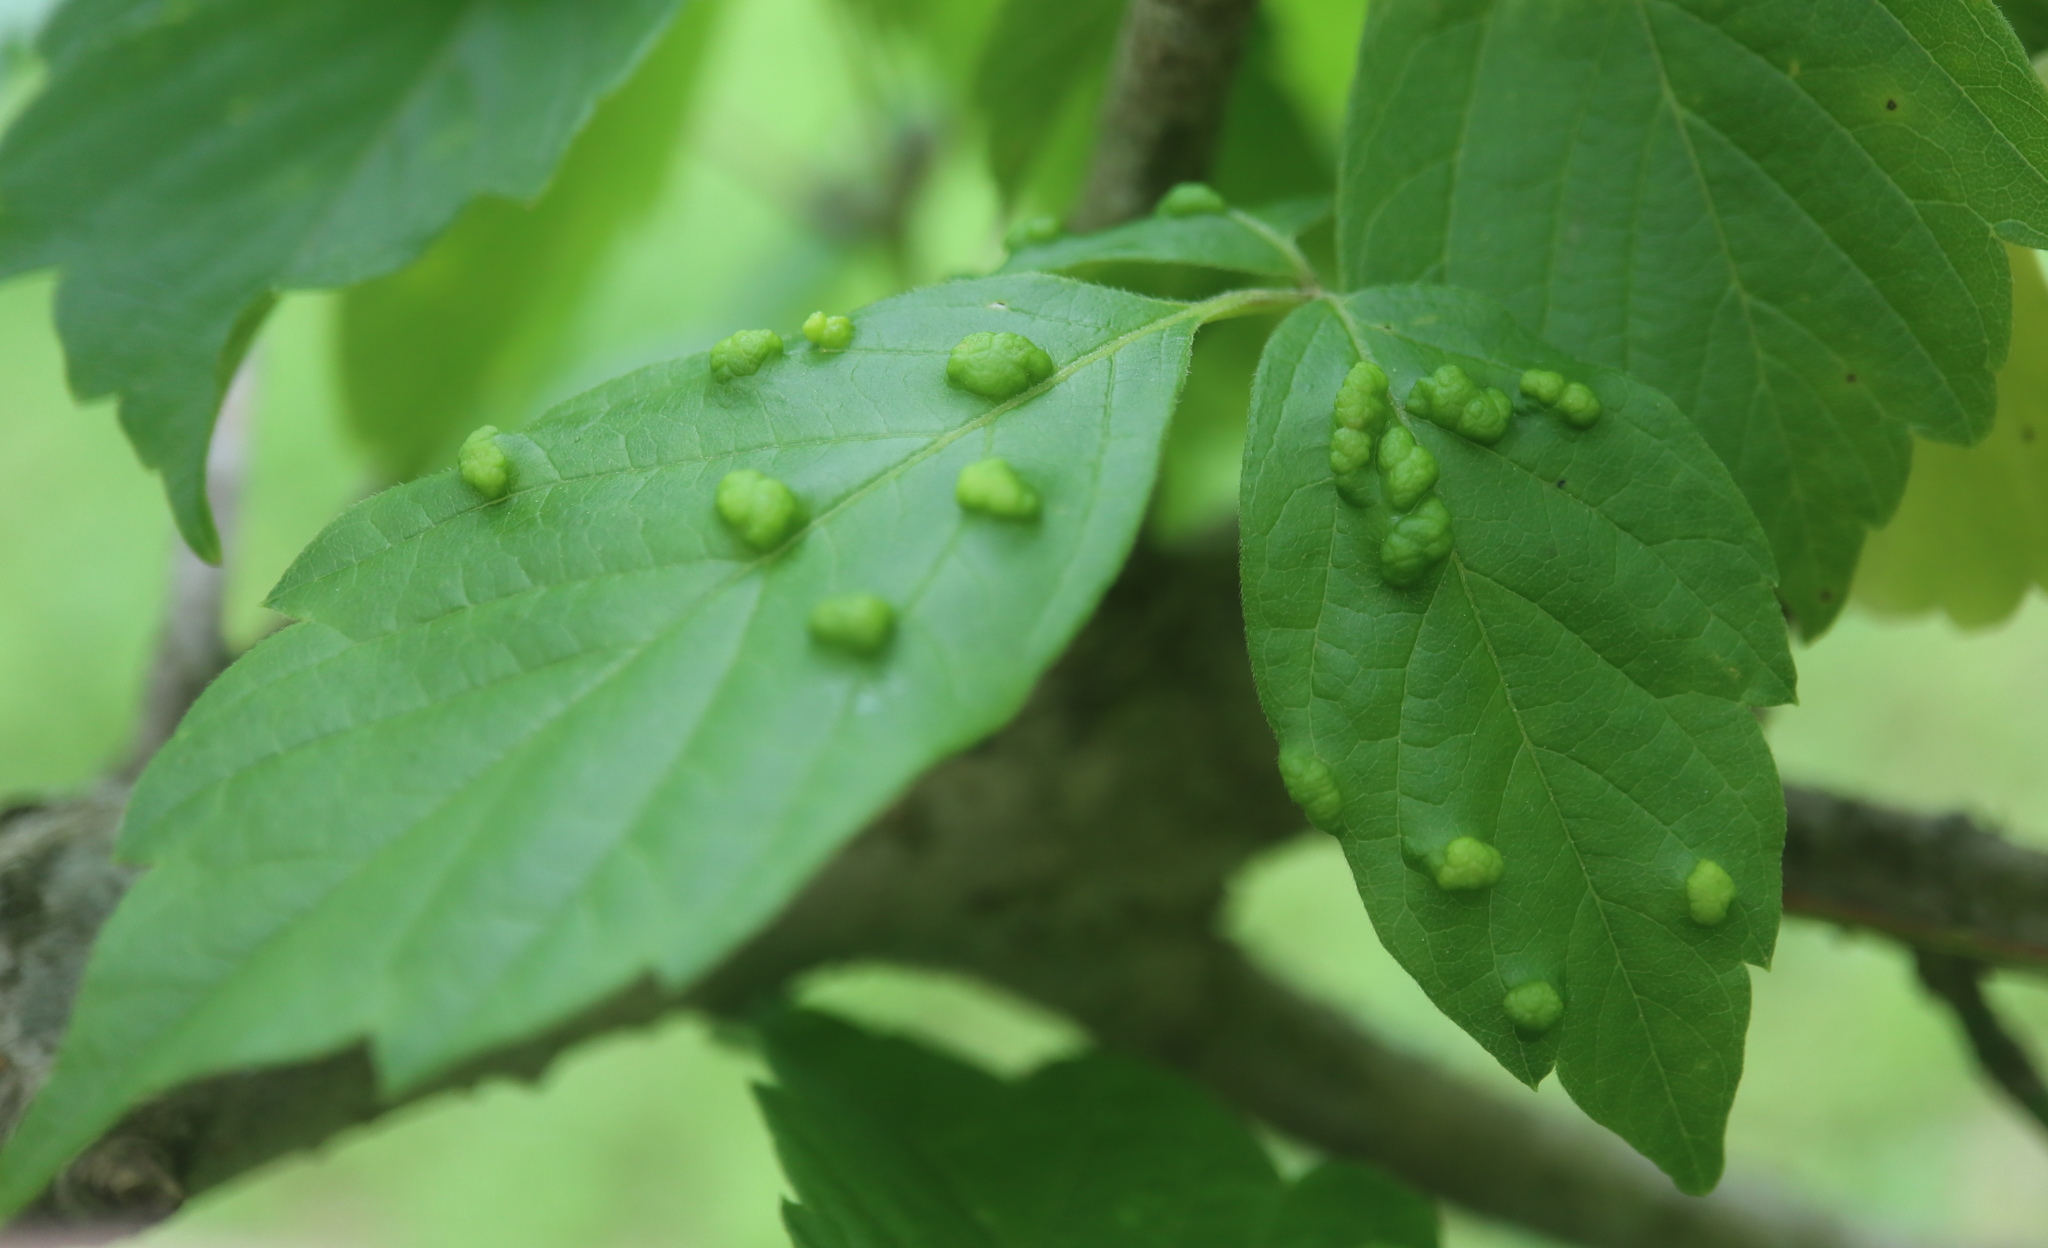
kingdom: Animalia
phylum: Arthropoda
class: Arachnida
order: Trombidiformes
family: Eriophyidae
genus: Aceria
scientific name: Aceria
